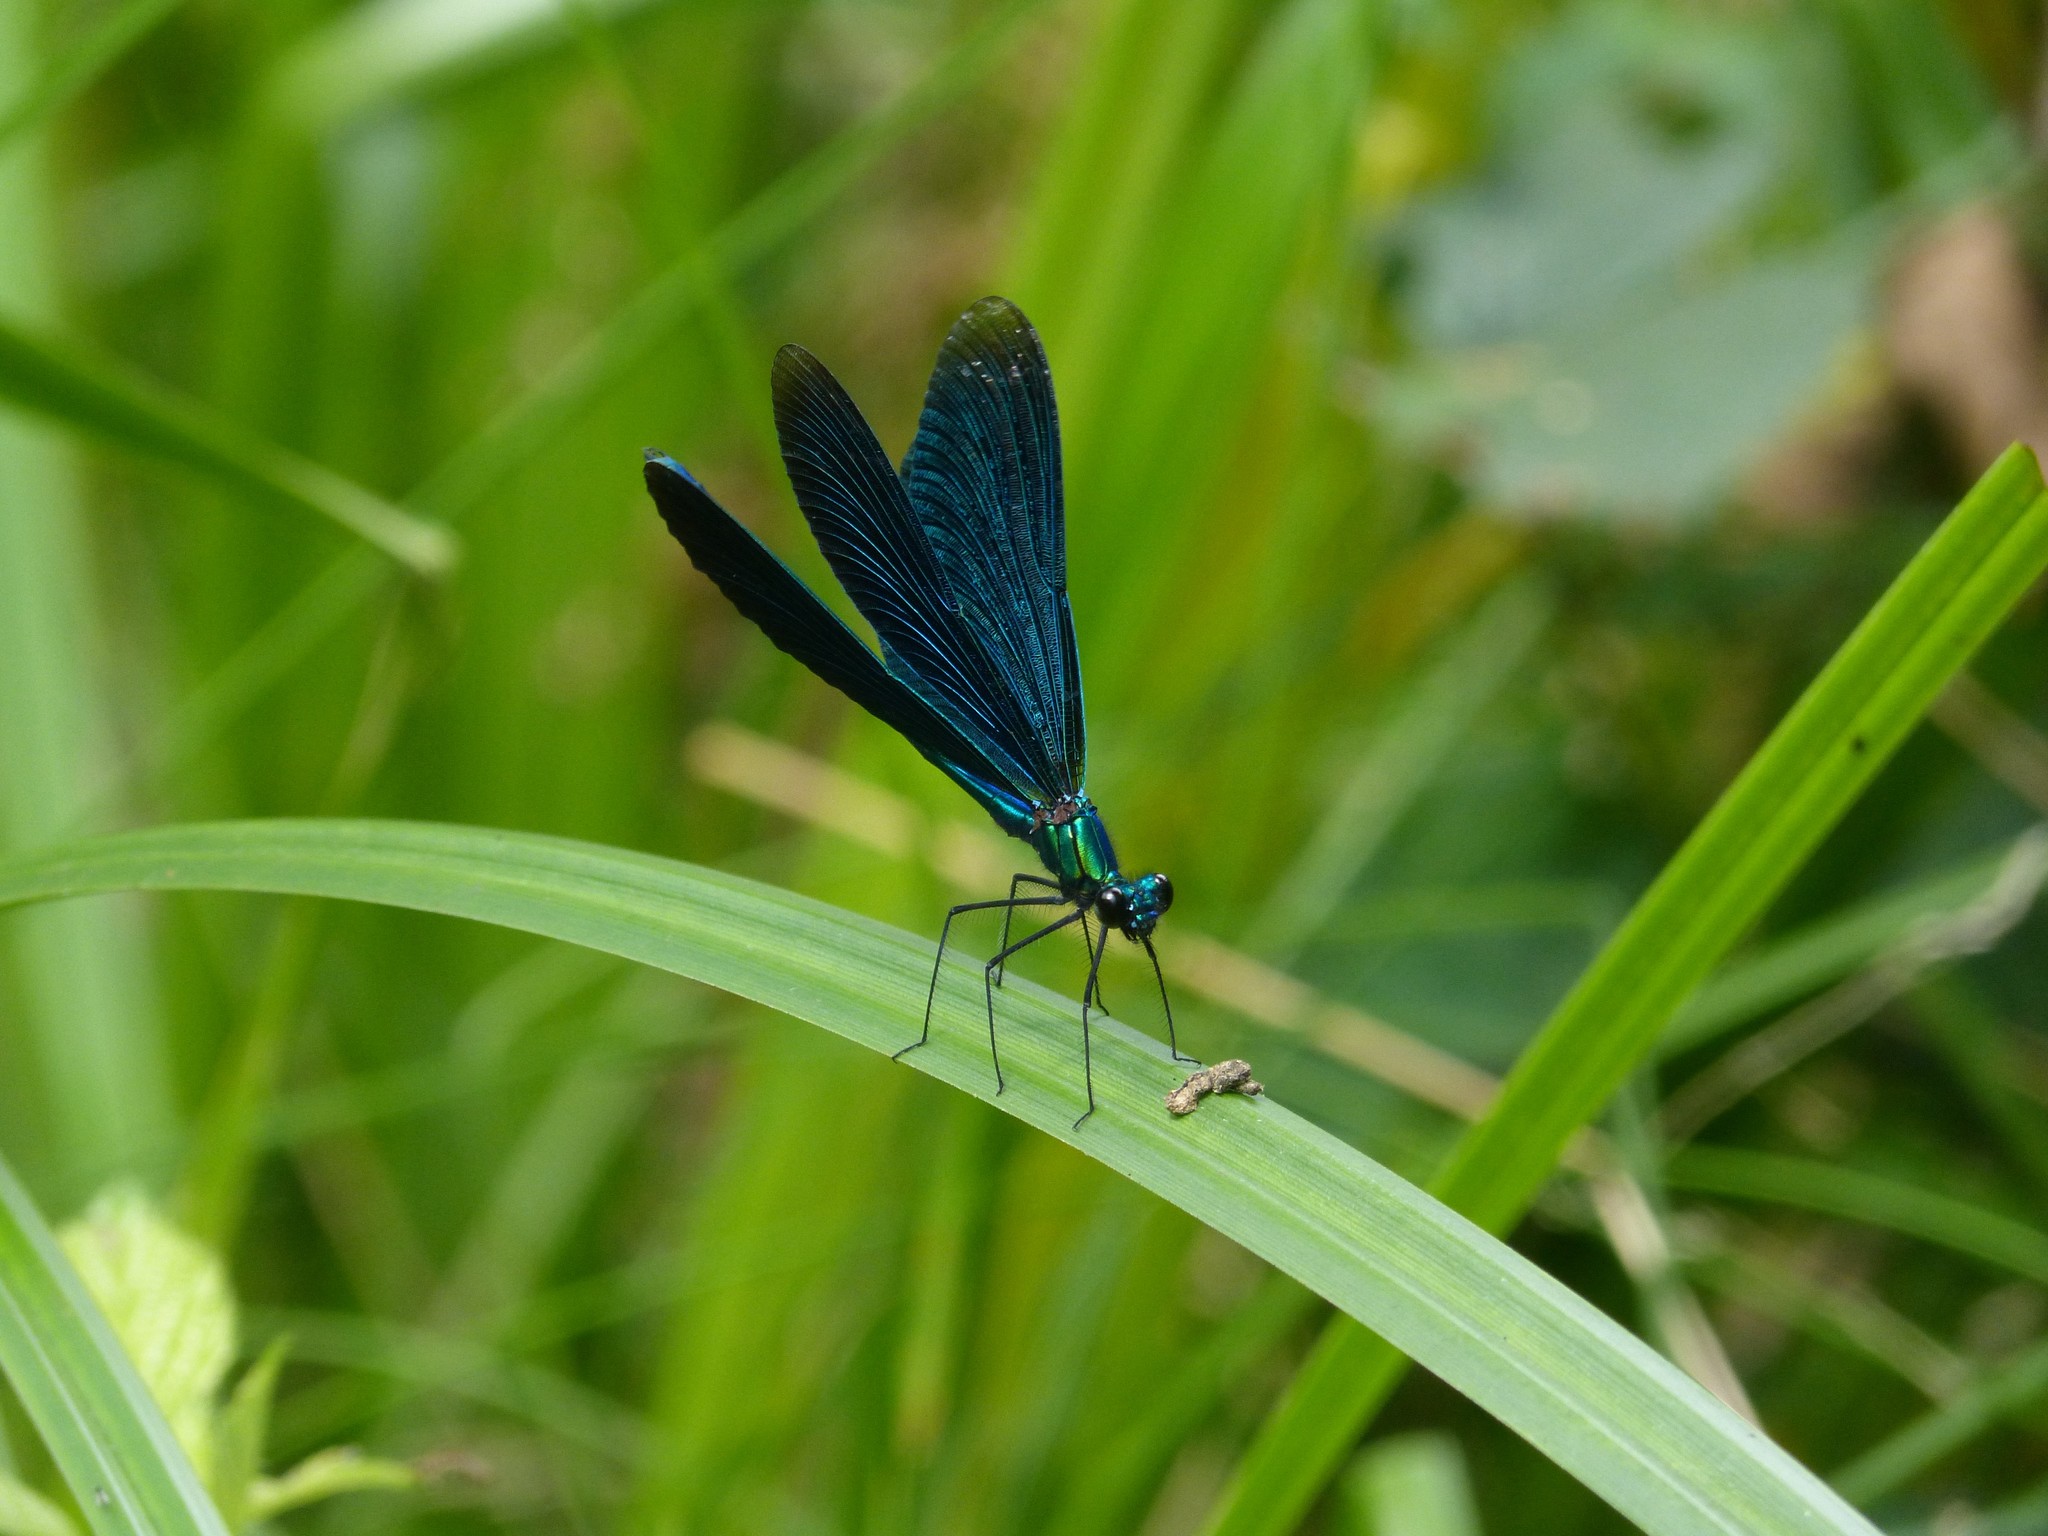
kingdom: Animalia
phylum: Arthropoda
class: Insecta
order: Odonata
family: Calopterygidae
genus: Calopteryx
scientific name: Calopteryx virgo
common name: Beautiful demoiselle
